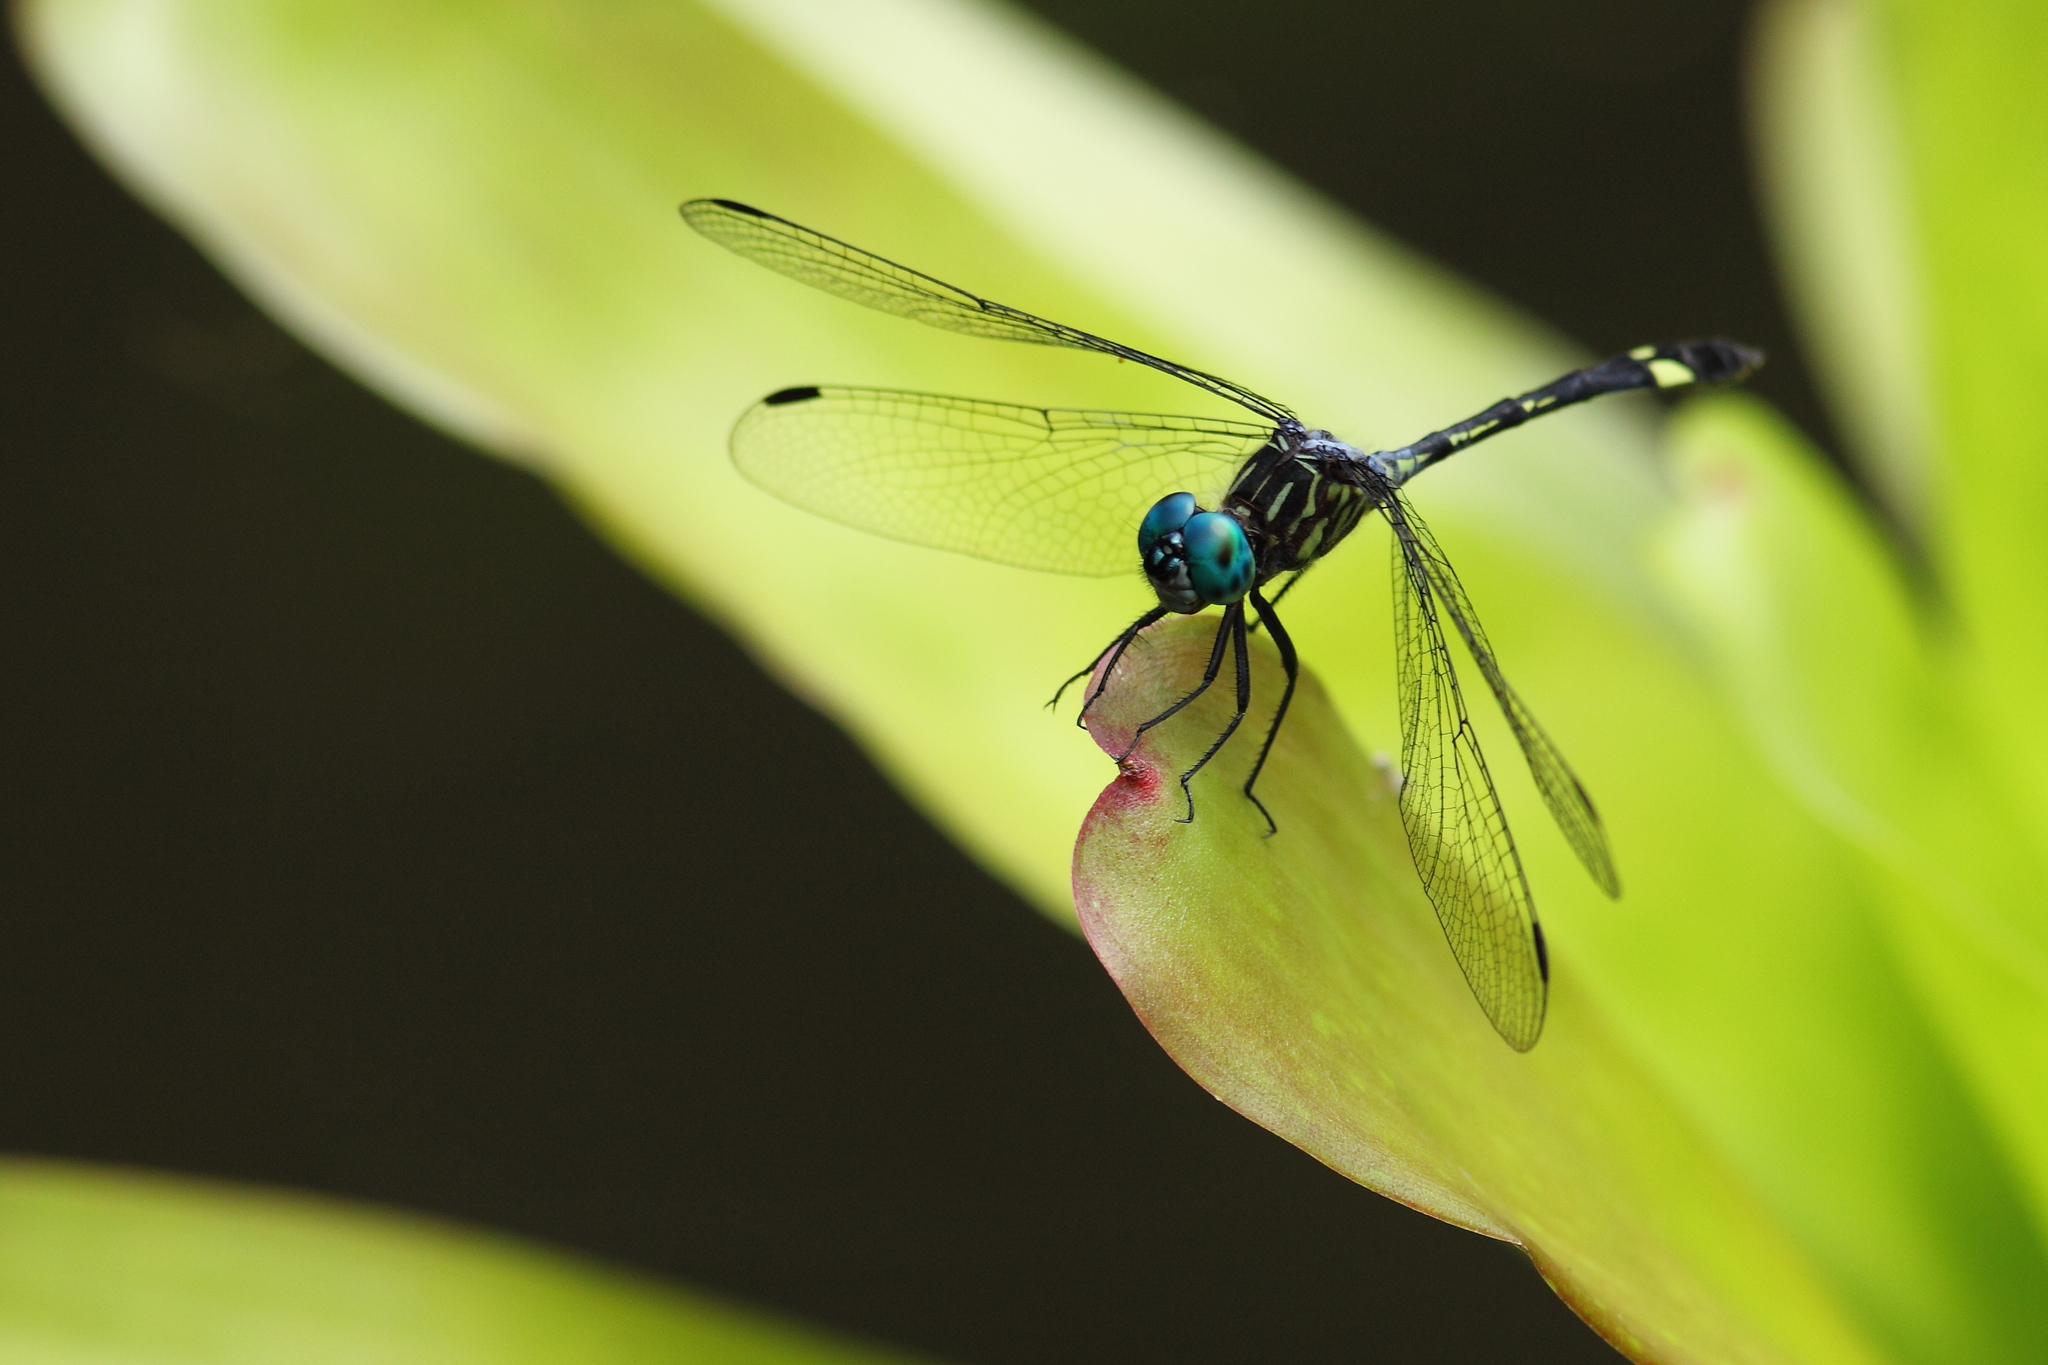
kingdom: Animalia
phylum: Arthropoda
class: Insecta
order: Odonata
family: Libellulidae
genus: Micrathyria
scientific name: Micrathyria ocellata
